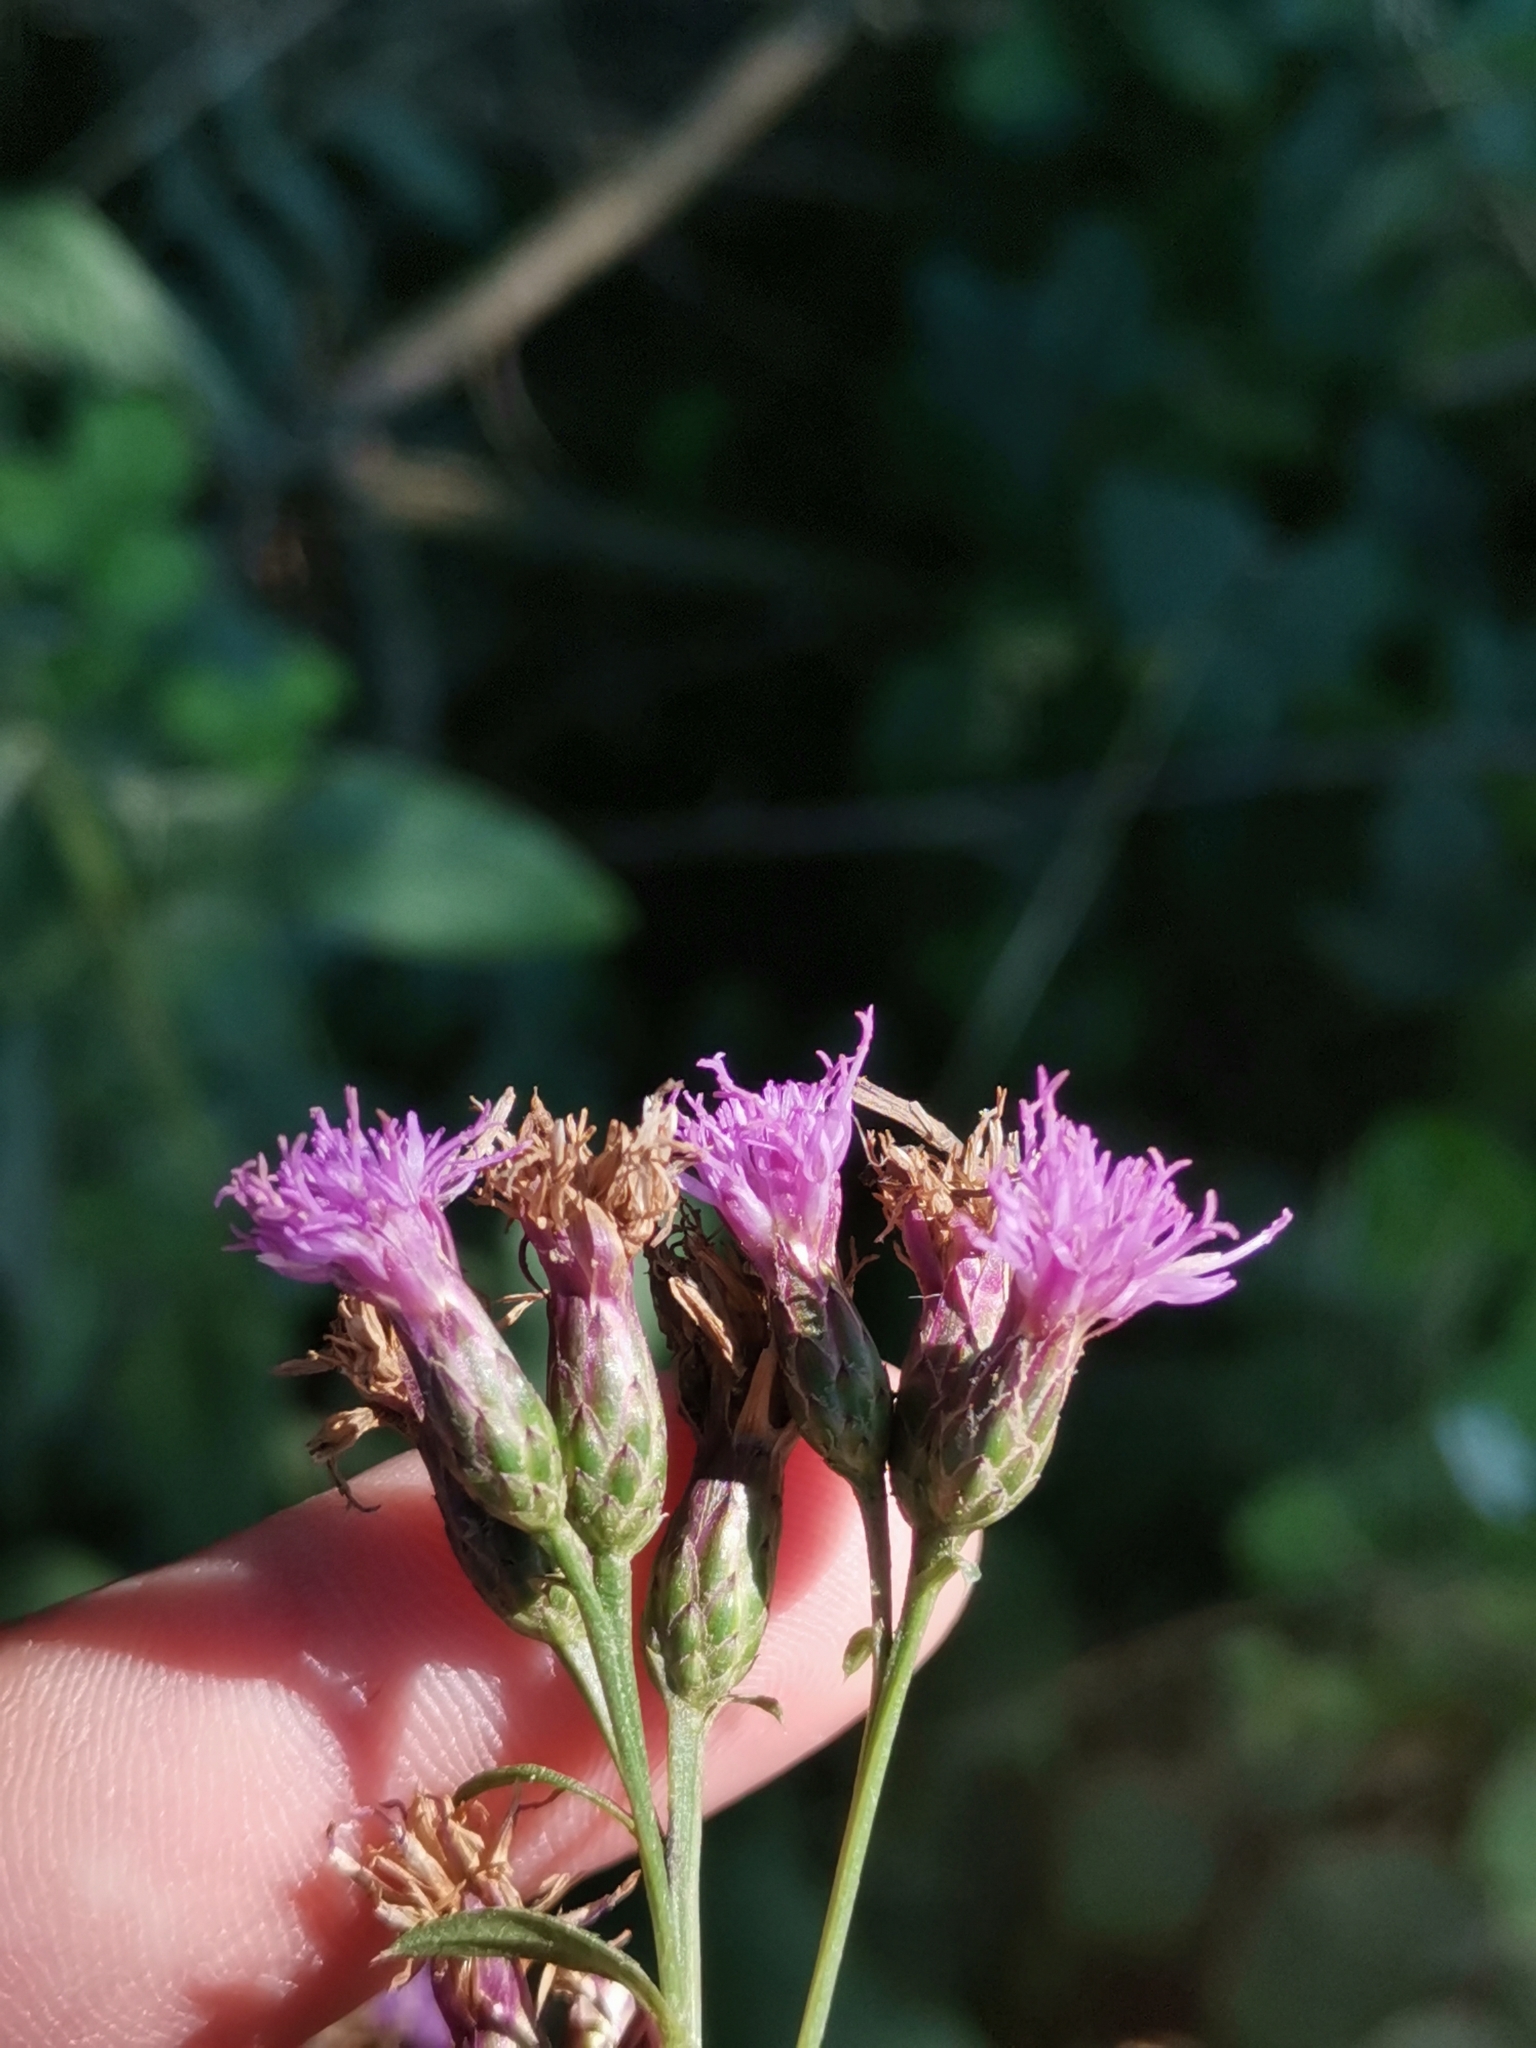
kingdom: Plantae
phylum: Tracheophyta
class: Magnoliopsida
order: Asterales
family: Asteraceae
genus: Serratula
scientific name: Serratula tinctoria
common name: Saw-wort
